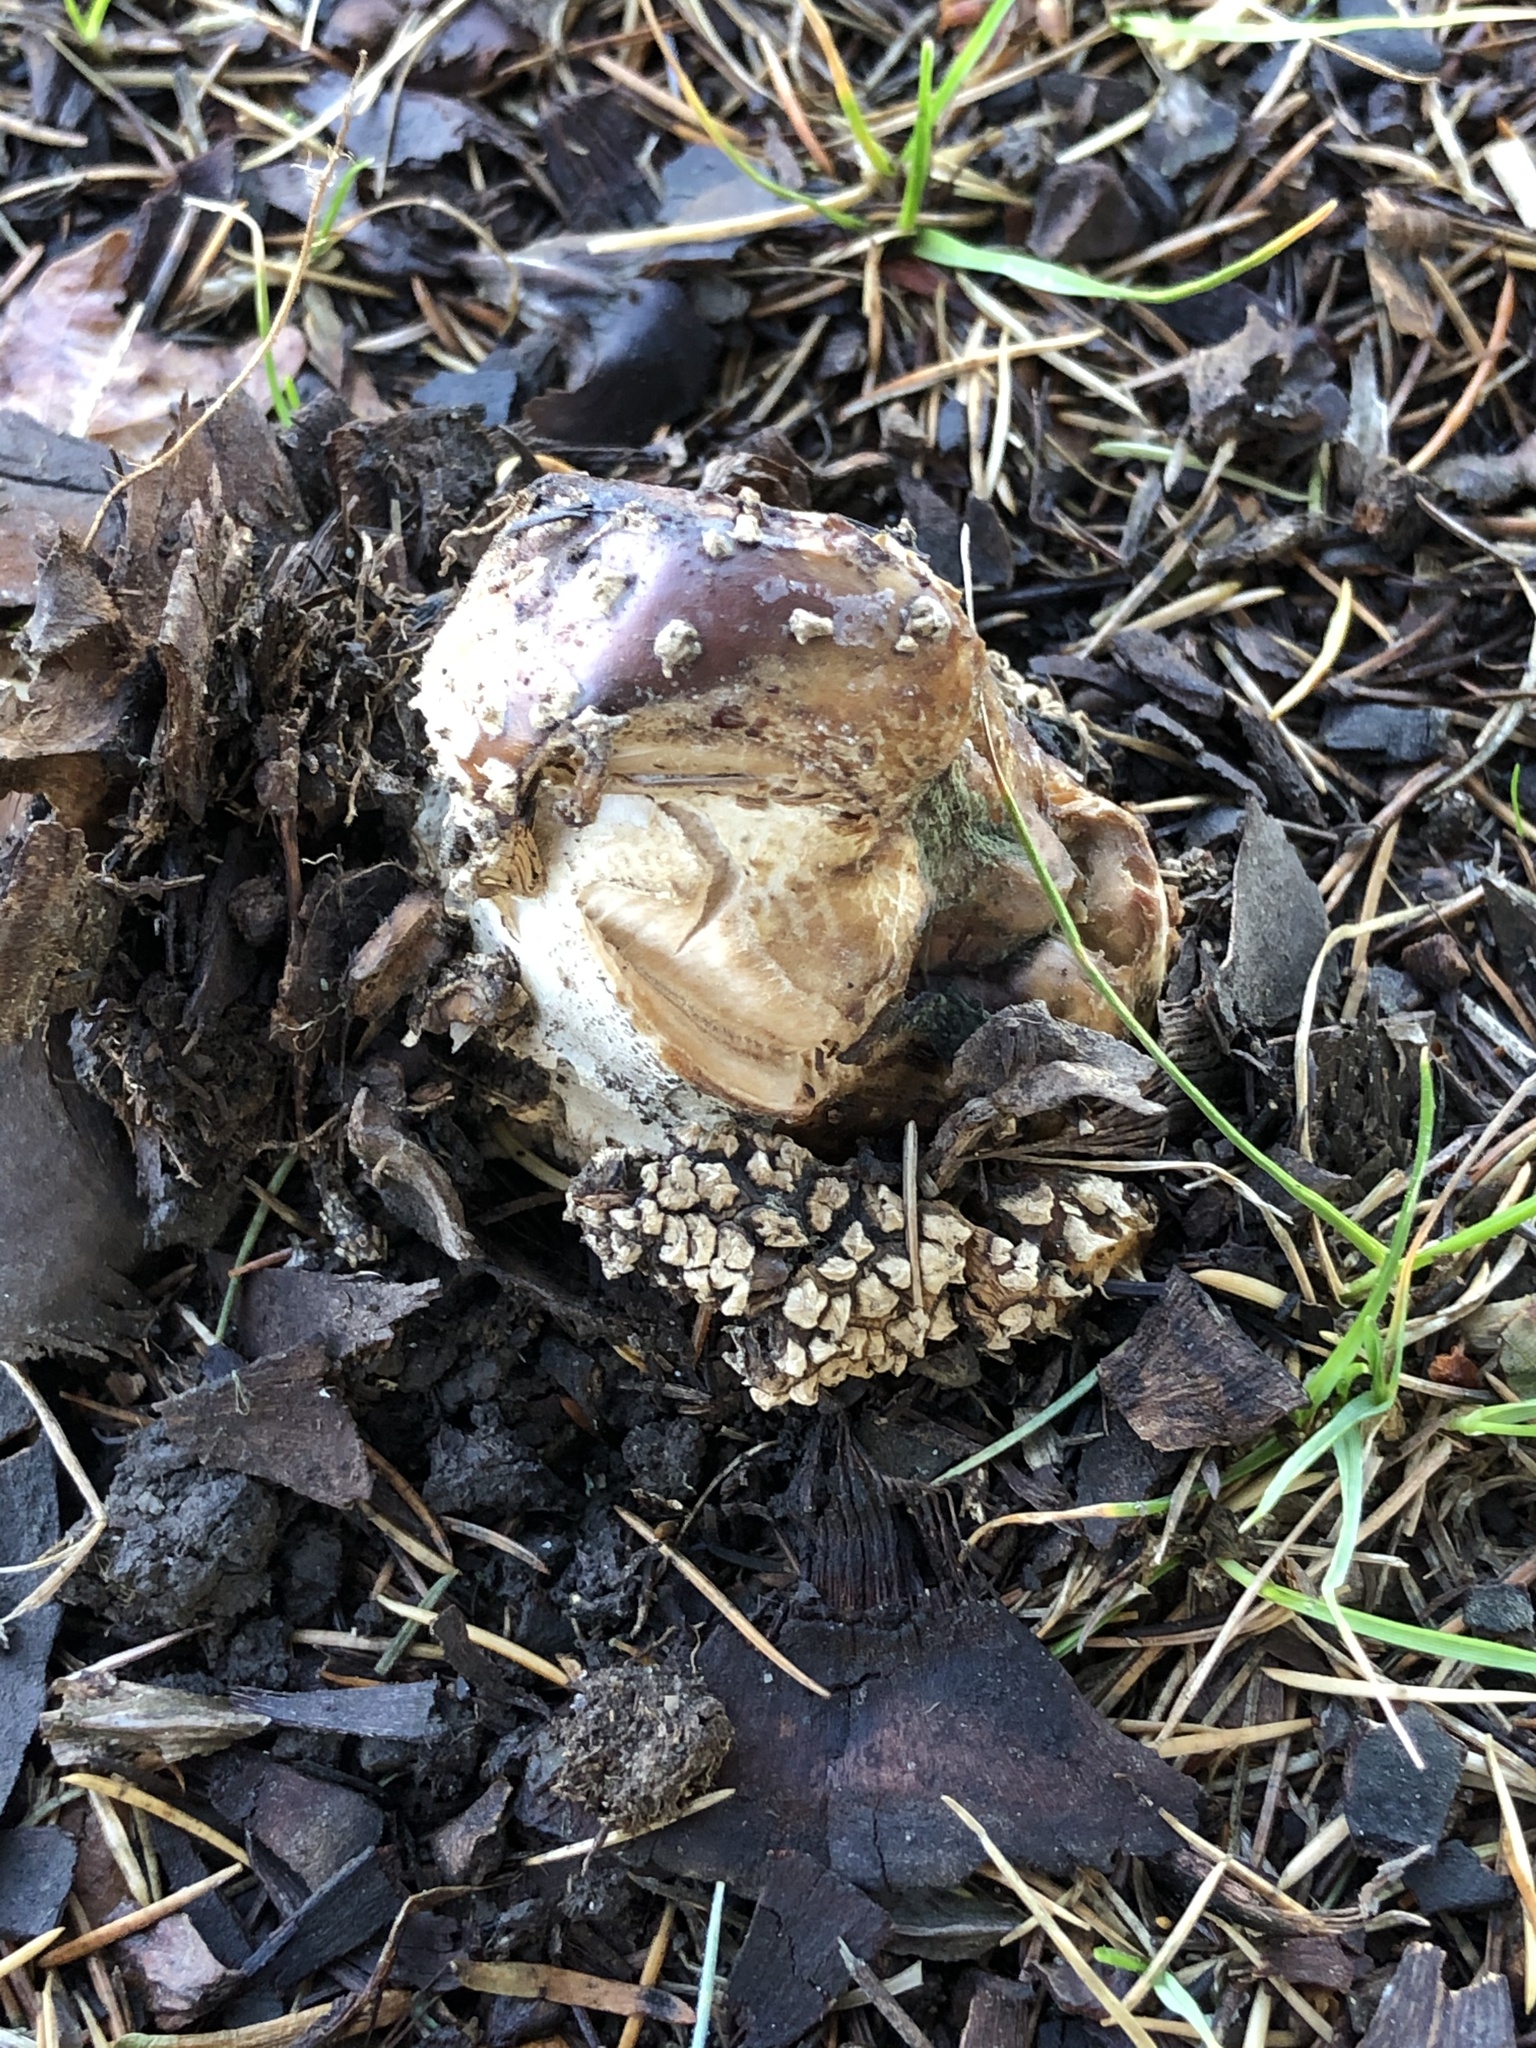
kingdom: Fungi
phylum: Basidiomycota
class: Agaricomycetes
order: Agaricales
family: Amanitaceae
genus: Amanita
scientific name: Amanita muscaria
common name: Fly agaric
